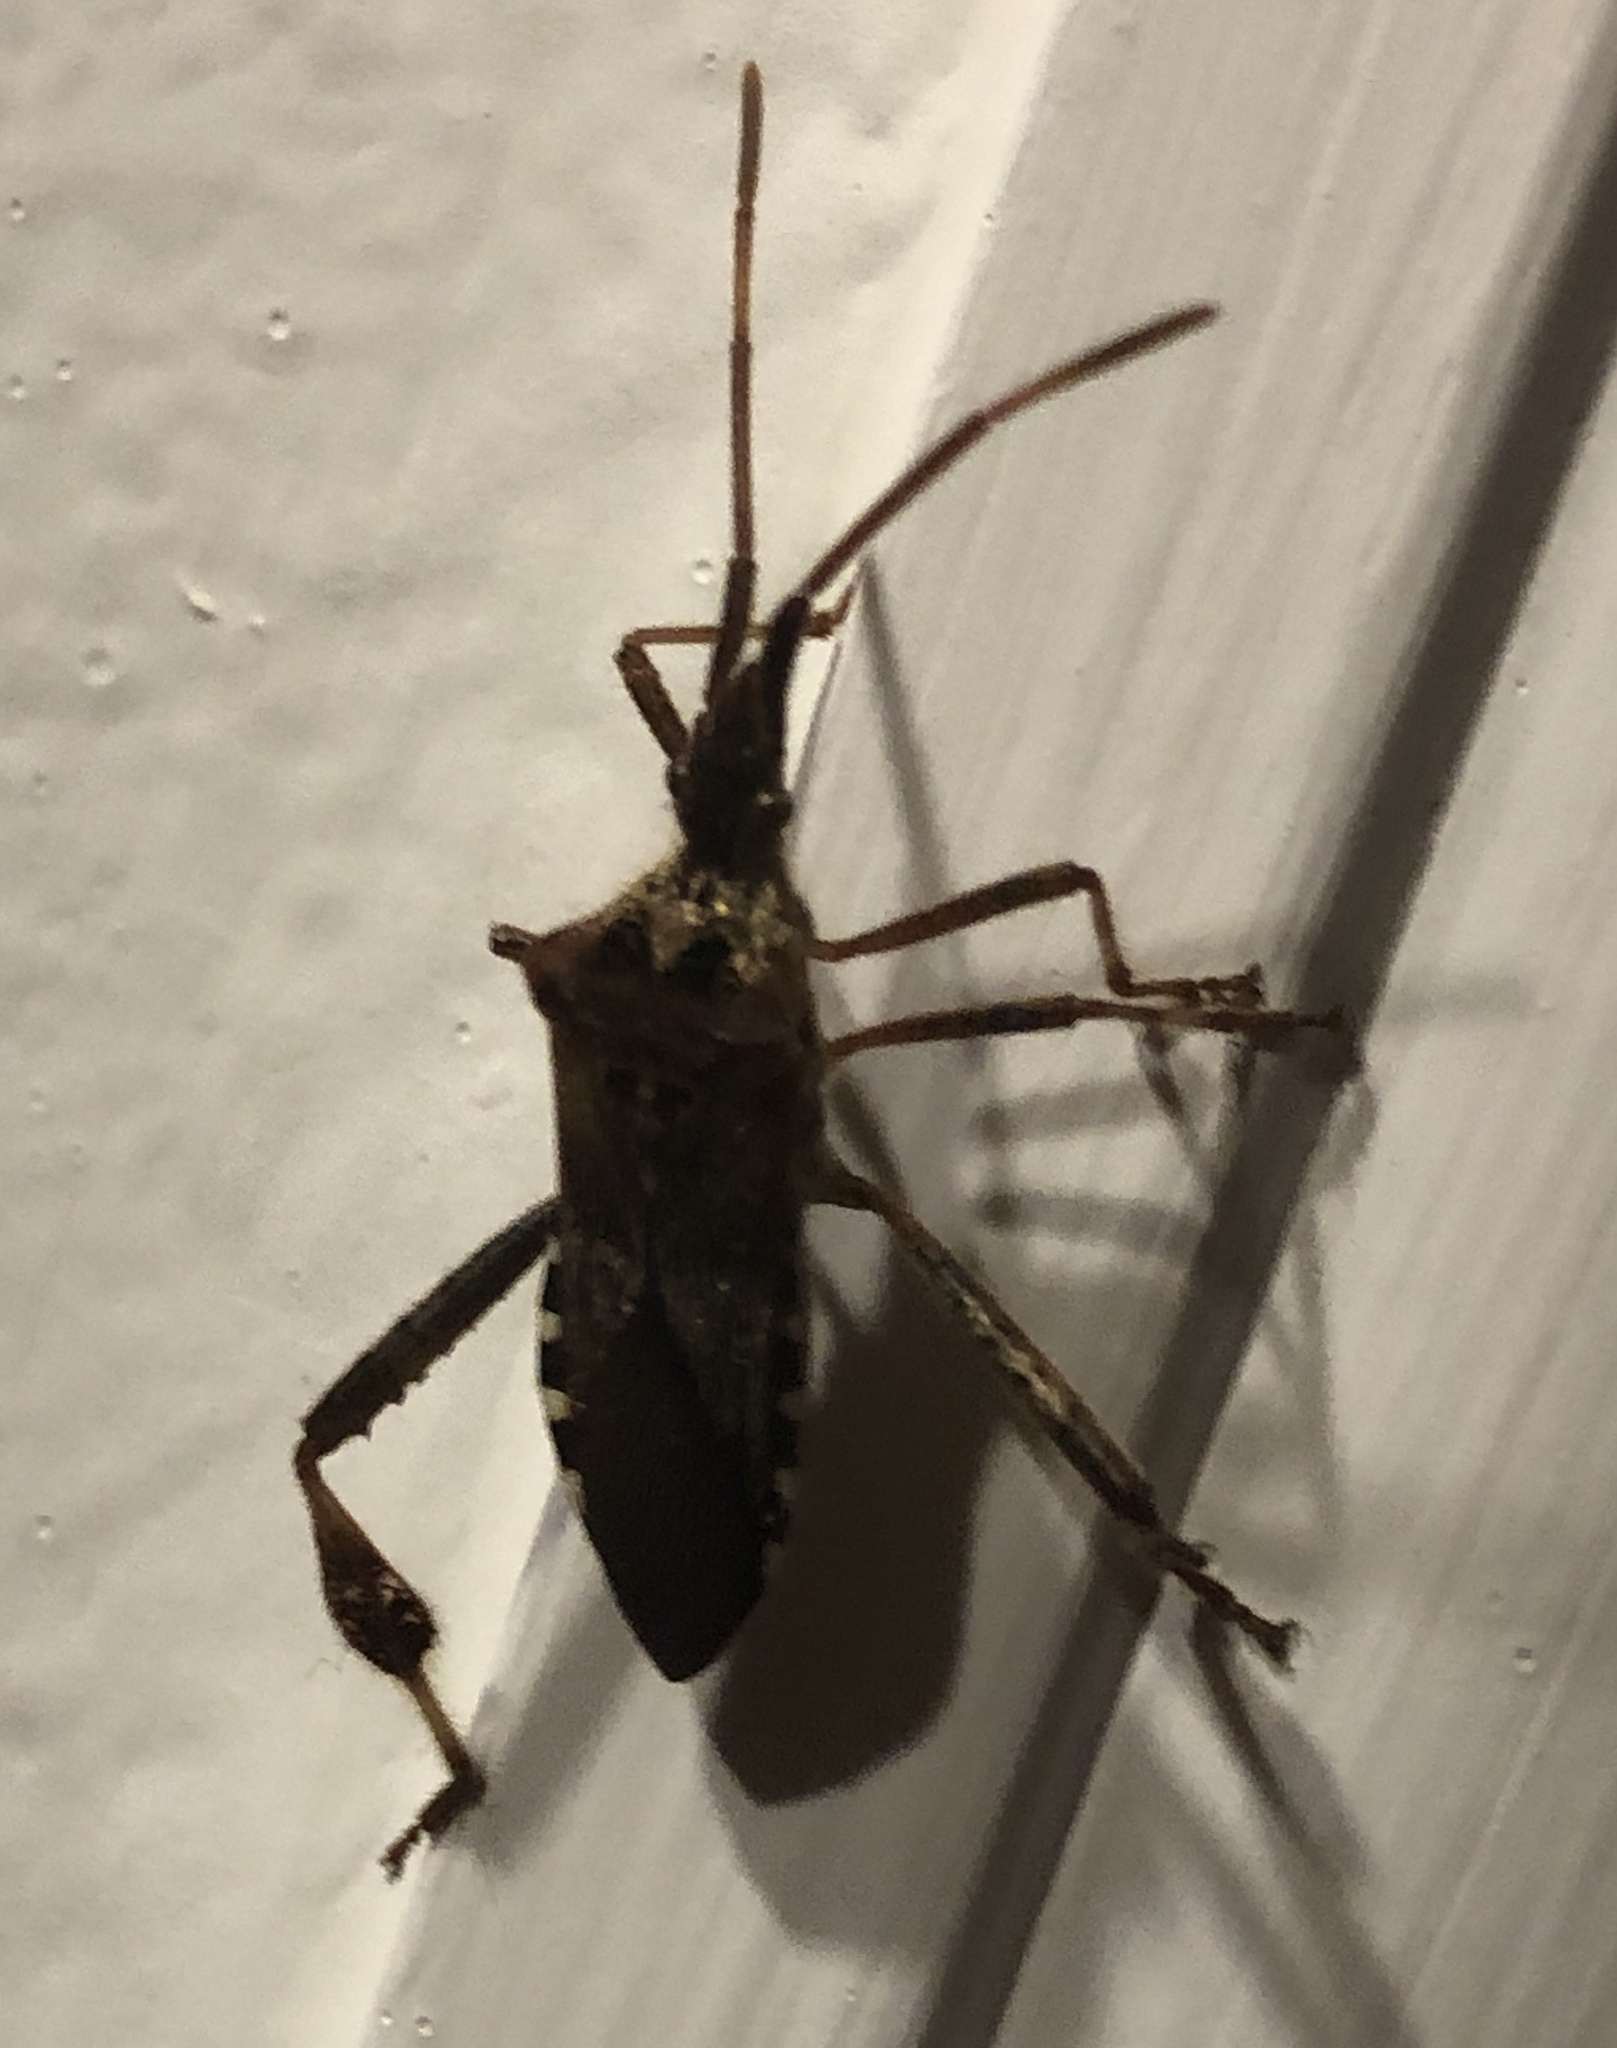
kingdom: Animalia
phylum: Arthropoda
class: Insecta
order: Hemiptera
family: Coreidae
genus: Leptoglossus
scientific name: Leptoglossus occidentalis
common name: Western conifer-seed bug
